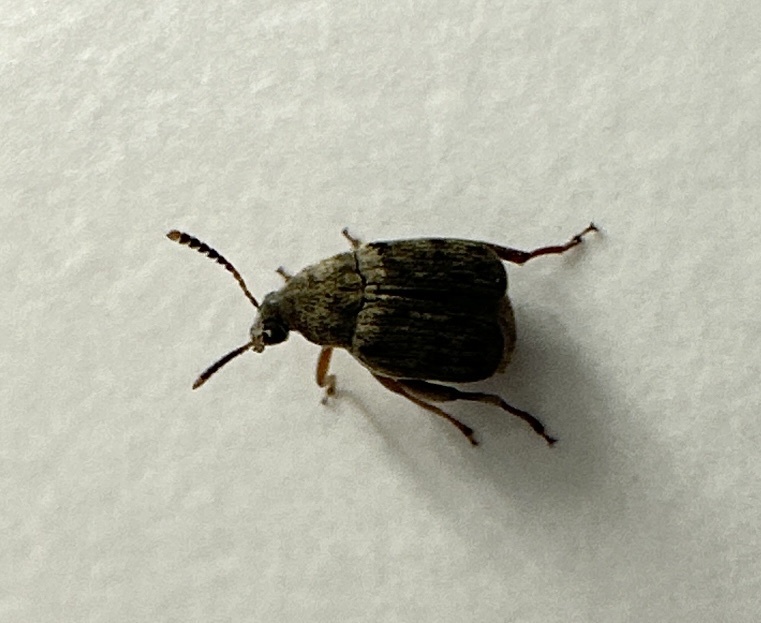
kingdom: Animalia
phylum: Arthropoda
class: Insecta
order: Coleoptera
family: Chrysomelidae
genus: Acanthoscelides
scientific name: Acanthoscelides obtectus
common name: Bean weevil
